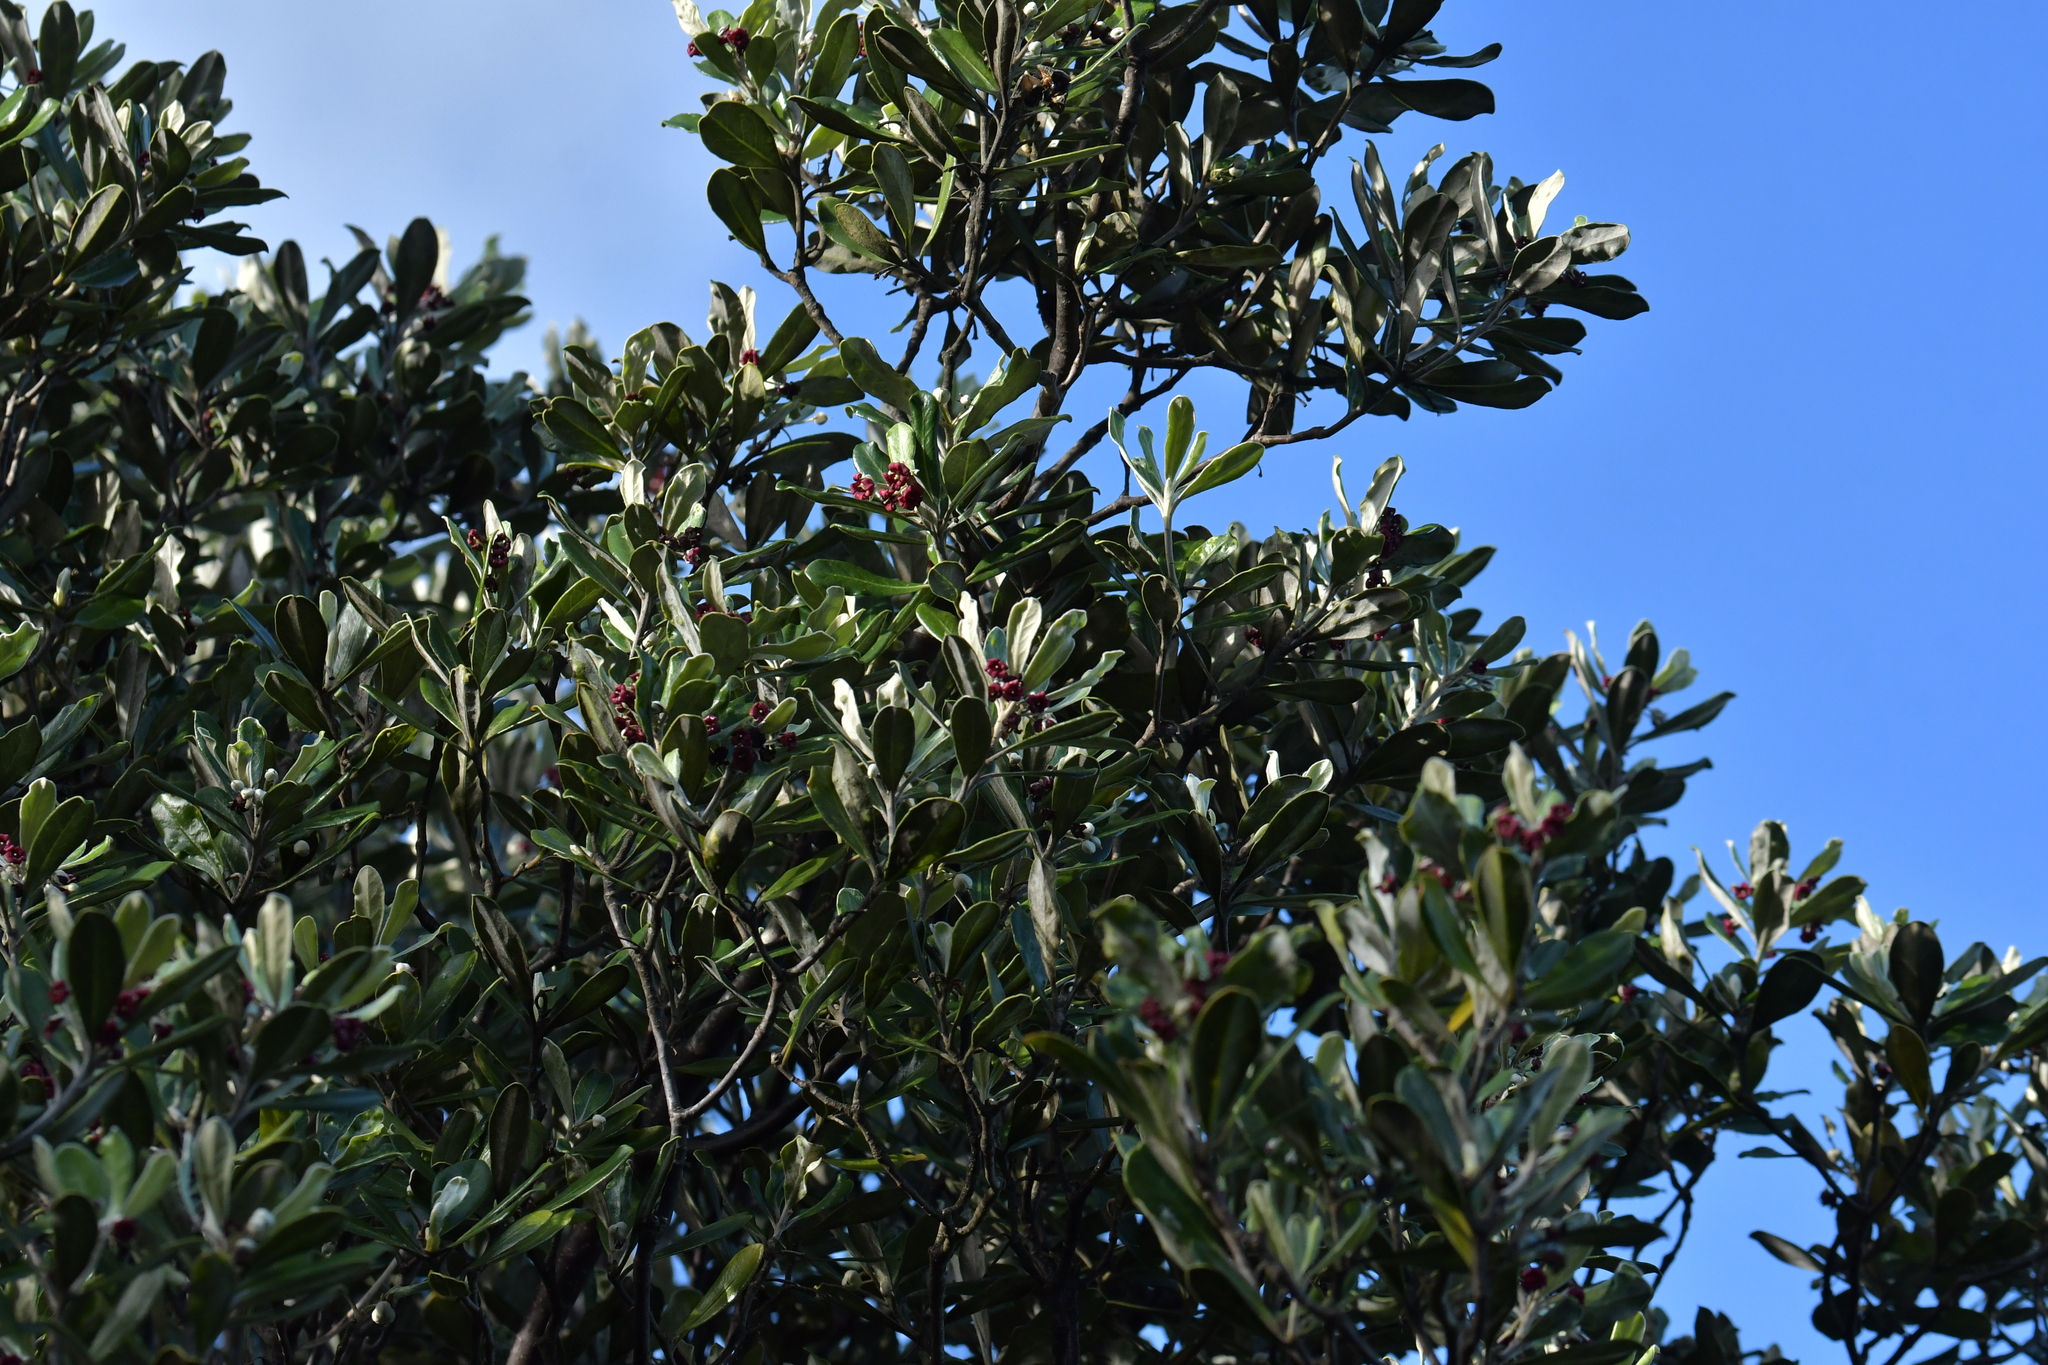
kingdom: Plantae
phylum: Tracheophyta
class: Magnoliopsida
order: Apiales
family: Pittosporaceae
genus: Pittosporum
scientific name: Pittosporum crassifolium
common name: Karo
